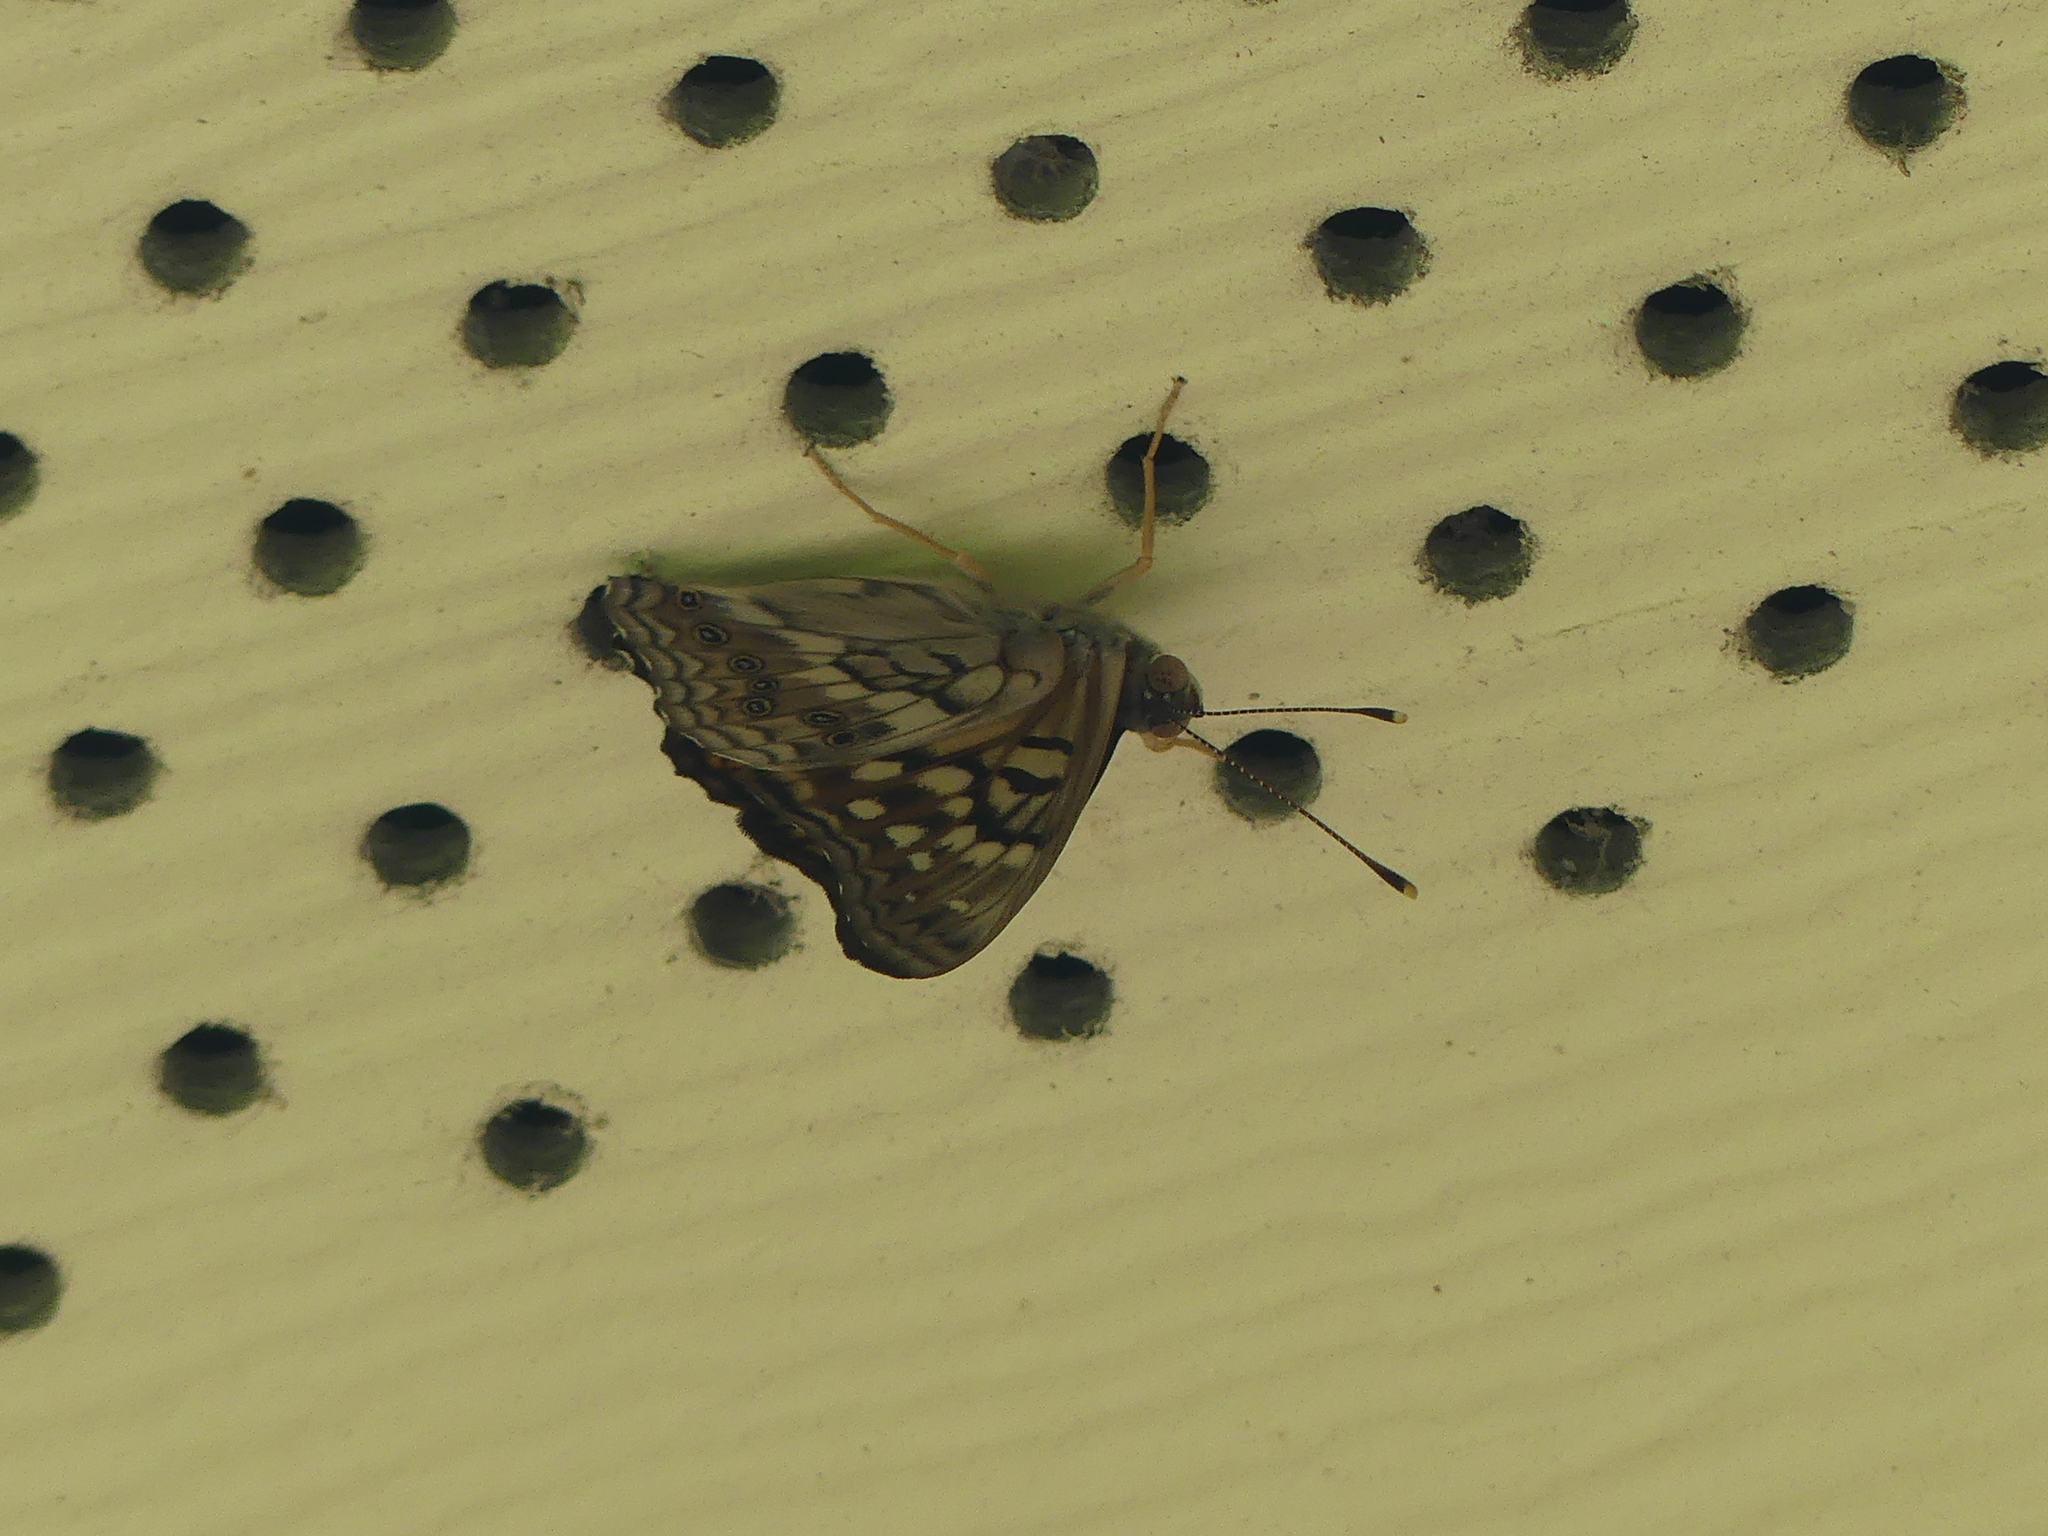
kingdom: Animalia
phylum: Arthropoda
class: Insecta
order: Lepidoptera
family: Nymphalidae
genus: Asterocampa
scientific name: Asterocampa clyton
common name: Tawny emperor
